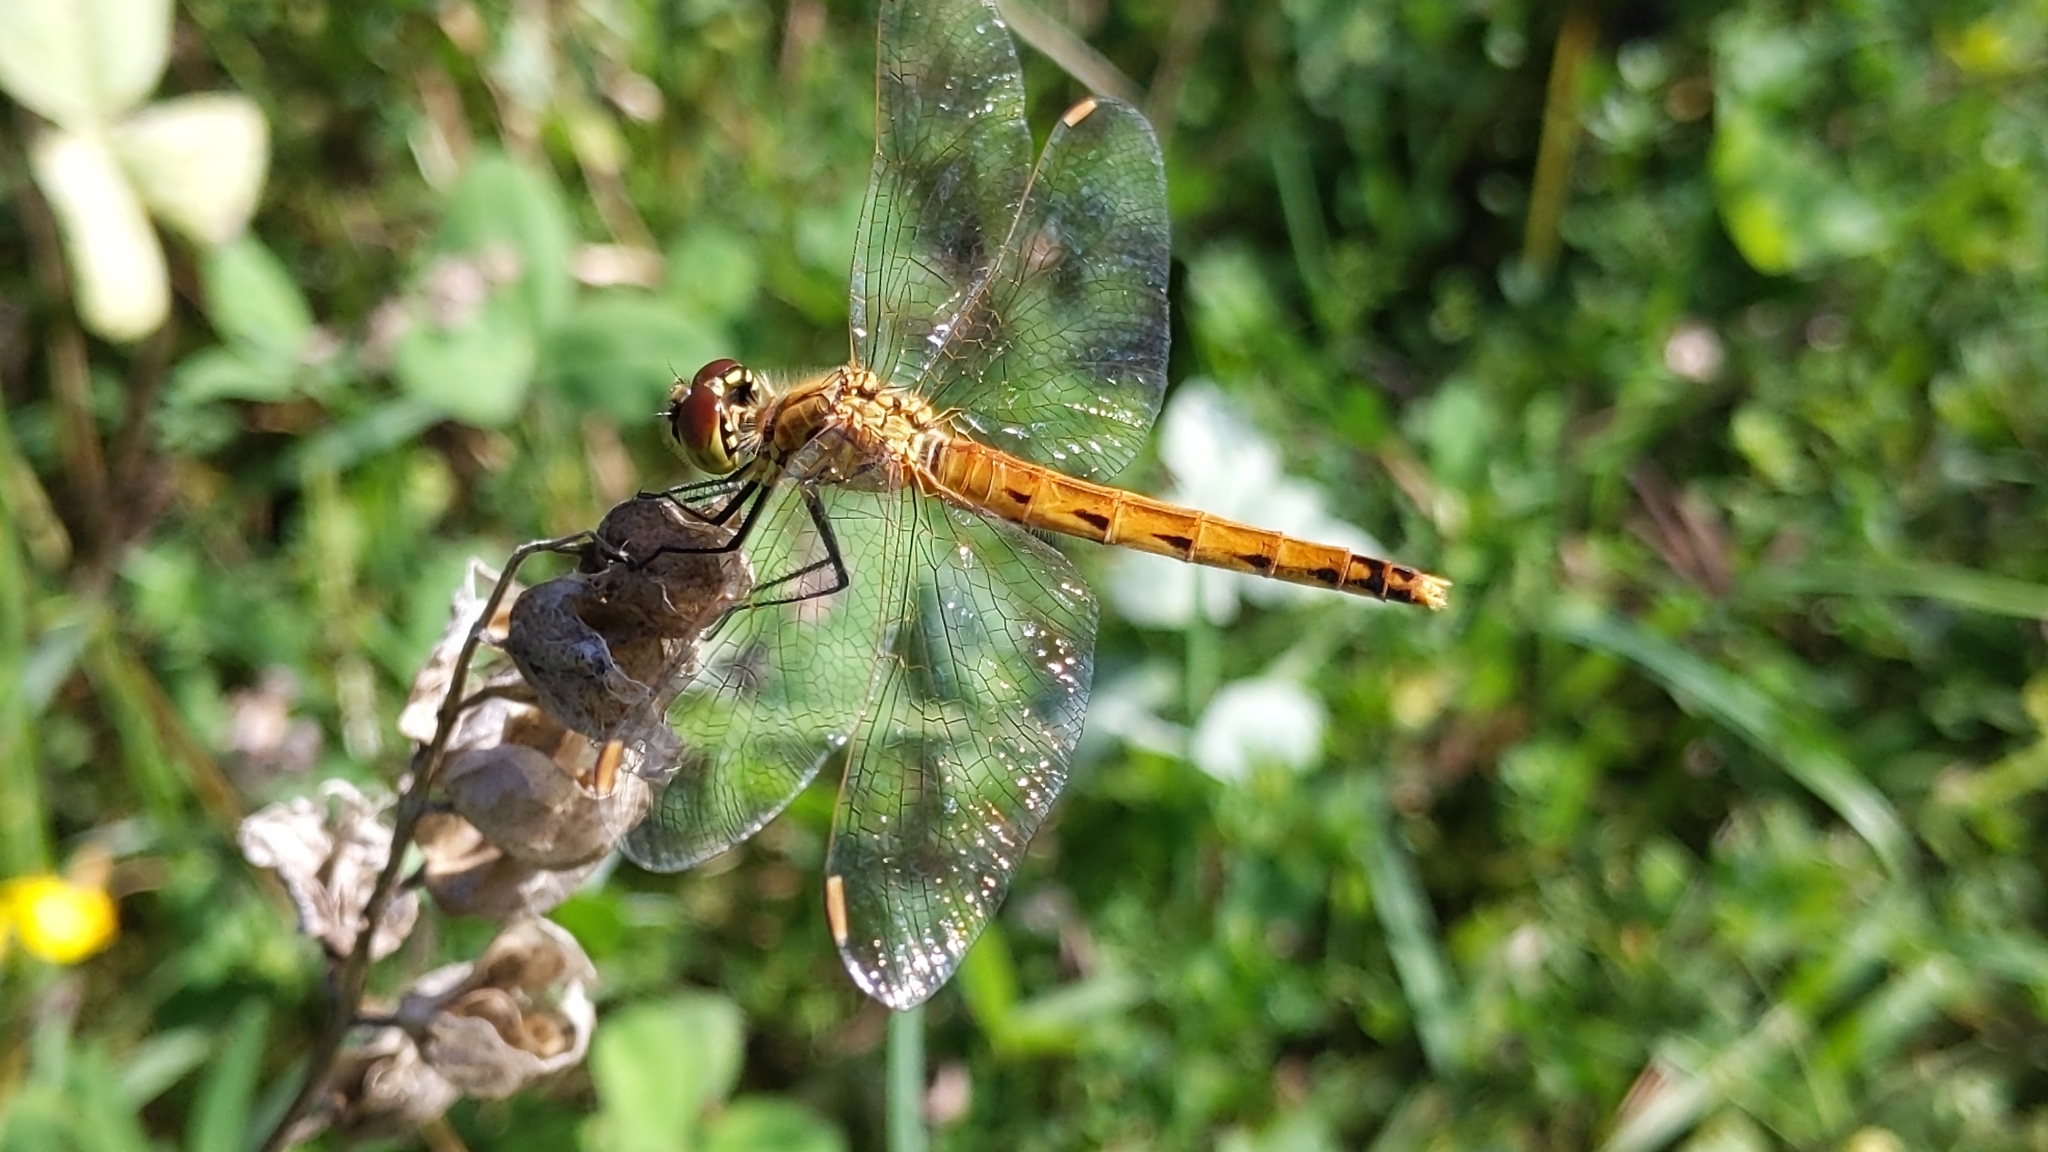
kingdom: Animalia
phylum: Arthropoda
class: Insecta
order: Odonata
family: Libellulidae
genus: Sympetrum
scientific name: Sympetrum depressiusculum
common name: Spotted darter
